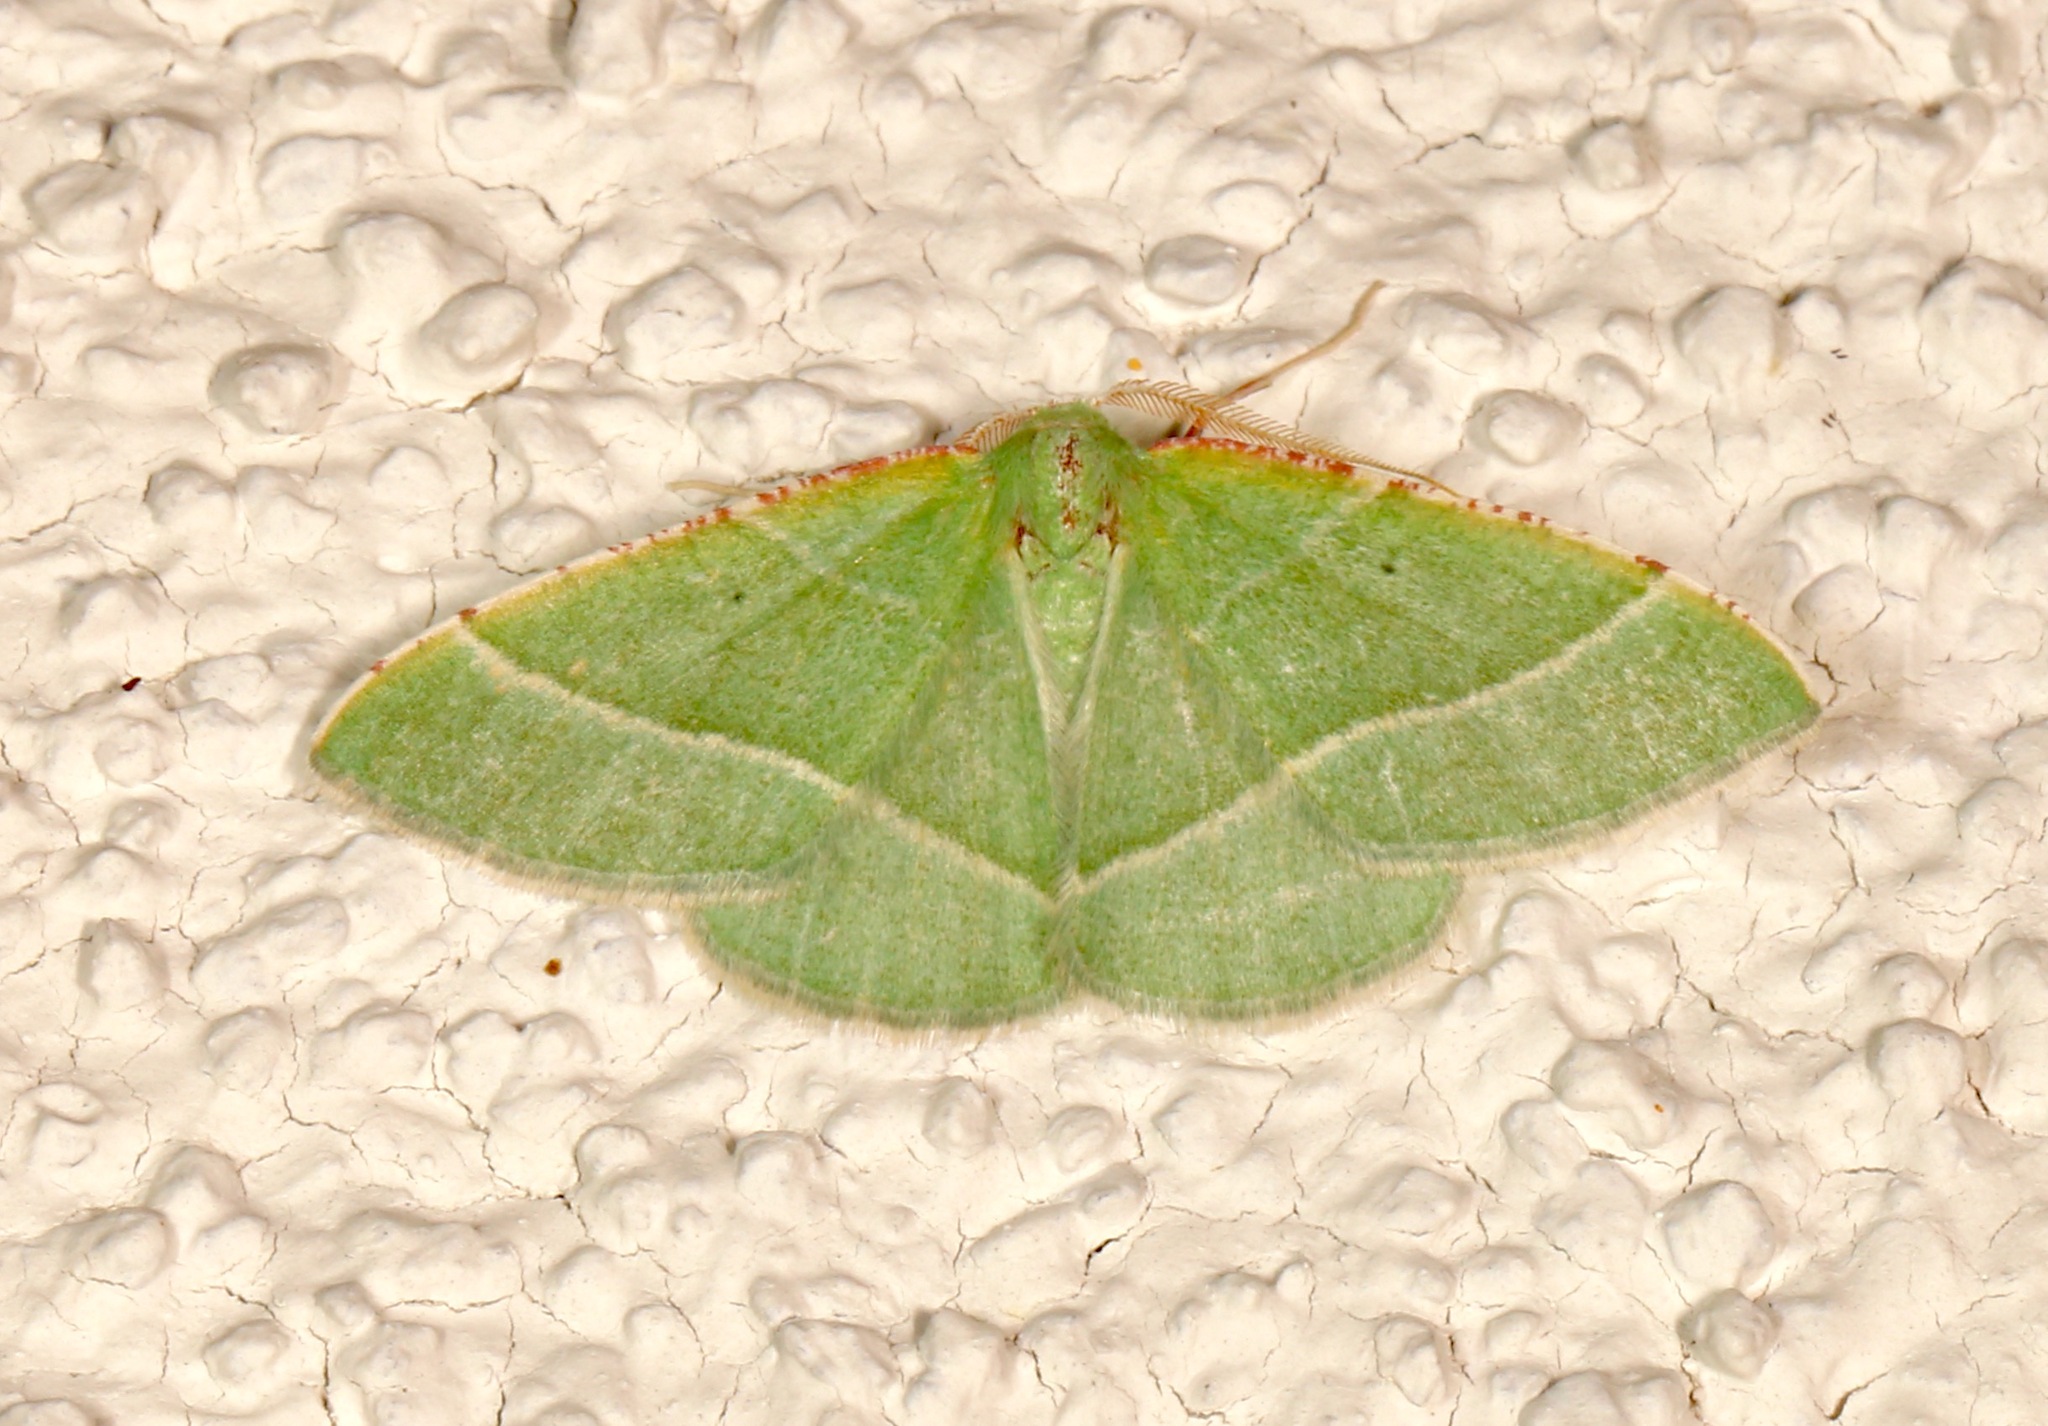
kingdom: Animalia
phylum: Arthropoda
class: Insecta
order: Lepidoptera
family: Geometridae
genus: Dichordophora
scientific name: Dichordophora phoenix
